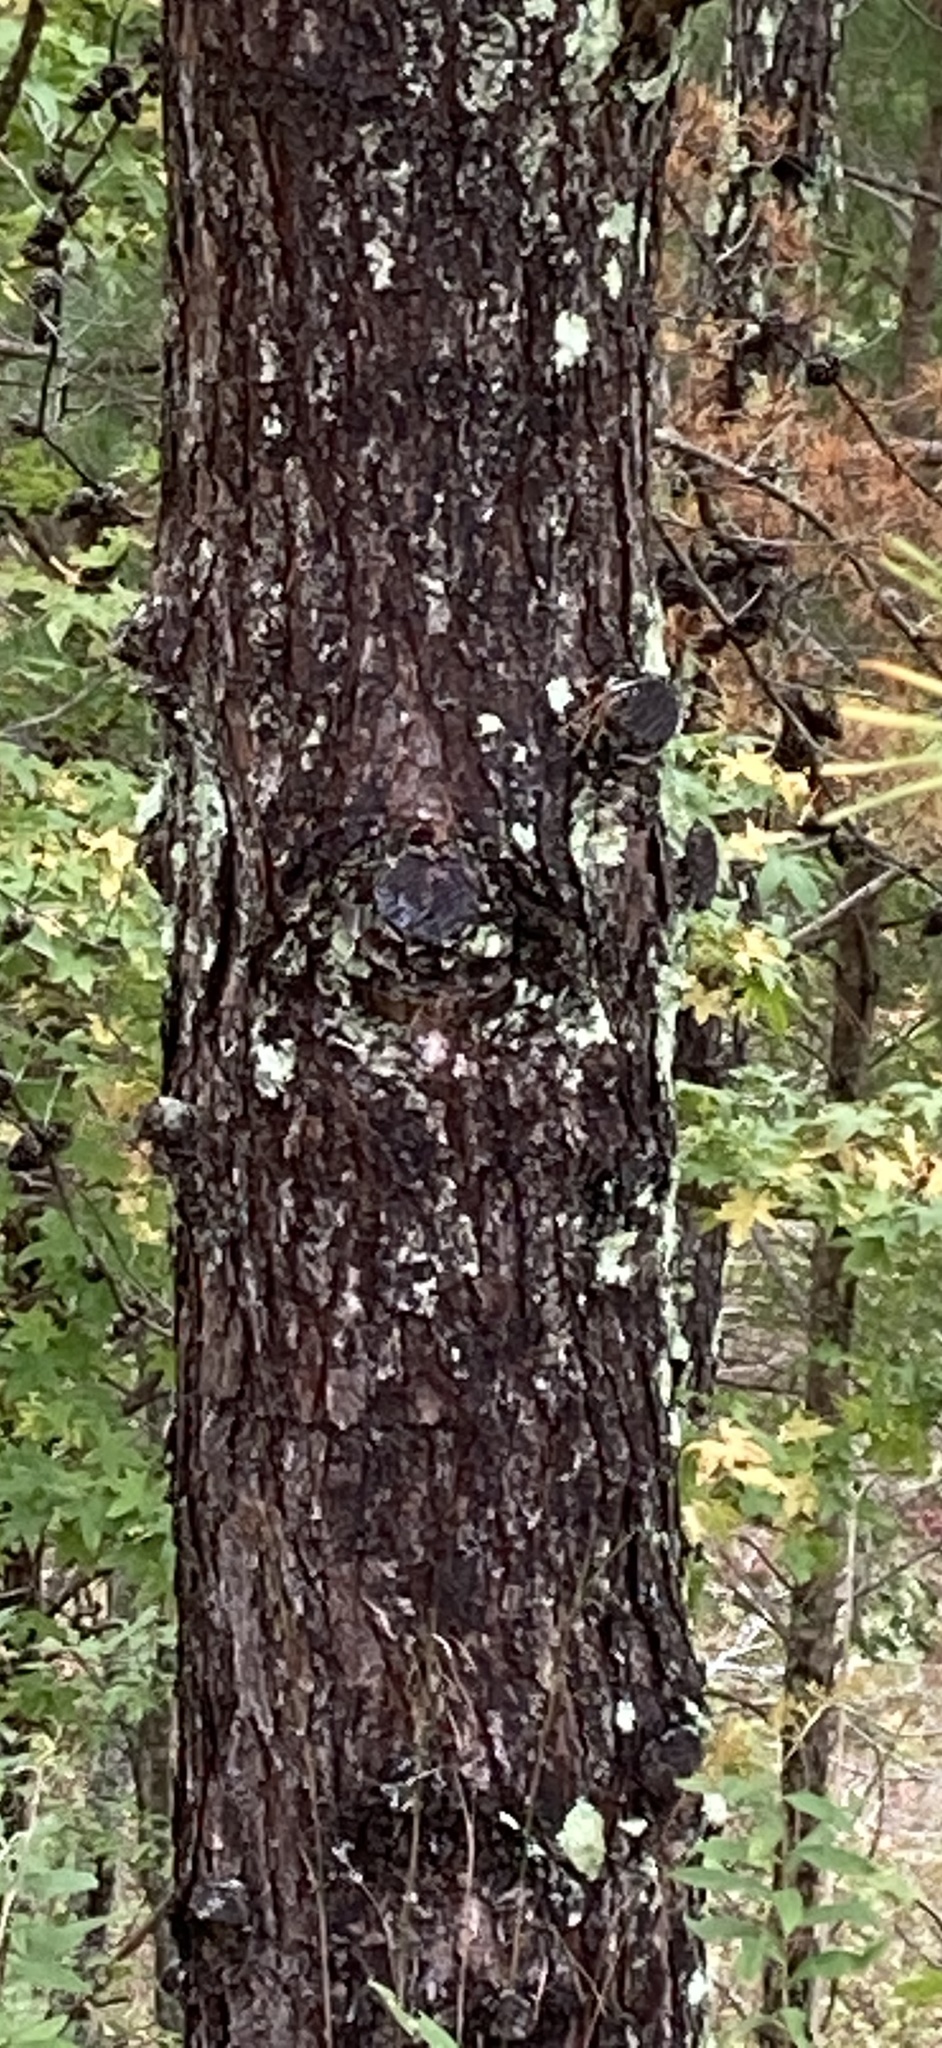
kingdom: Plantae
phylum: Tracheophyta
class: Pinopsida
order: Pinales
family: Pinaceae
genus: Pinus
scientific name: Pinus virginiana
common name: Scrub pine
